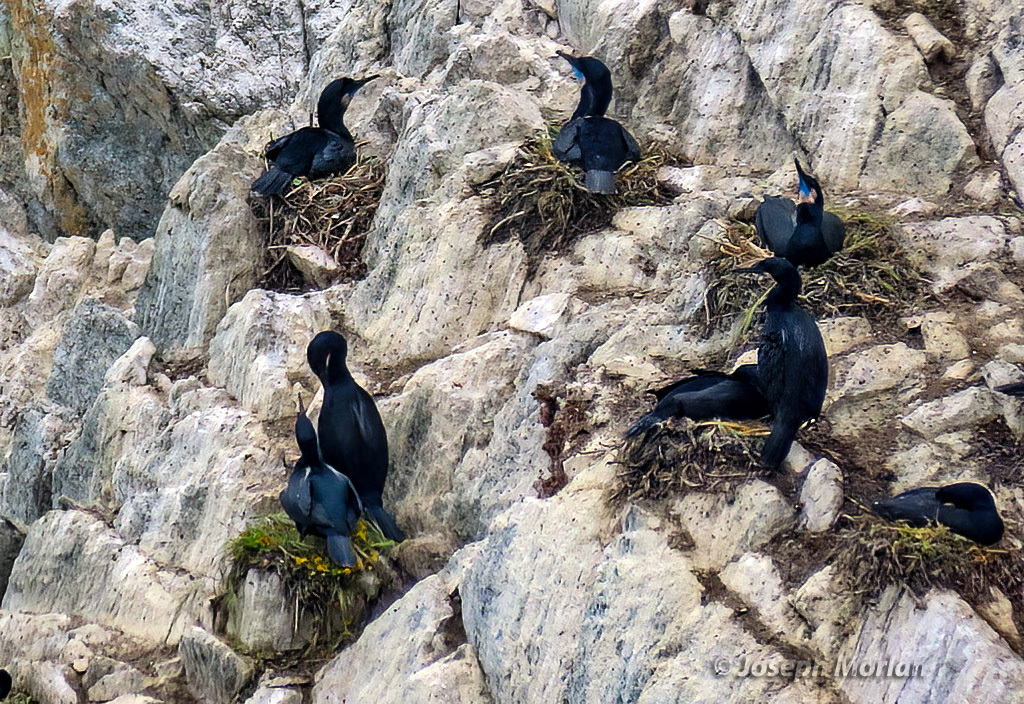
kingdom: Animalia
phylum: Chordata
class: Aves
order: Suliformes
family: Phalacrocoracidae
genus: Urile
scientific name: Urile penicillatus
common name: Brandt's cormorant
